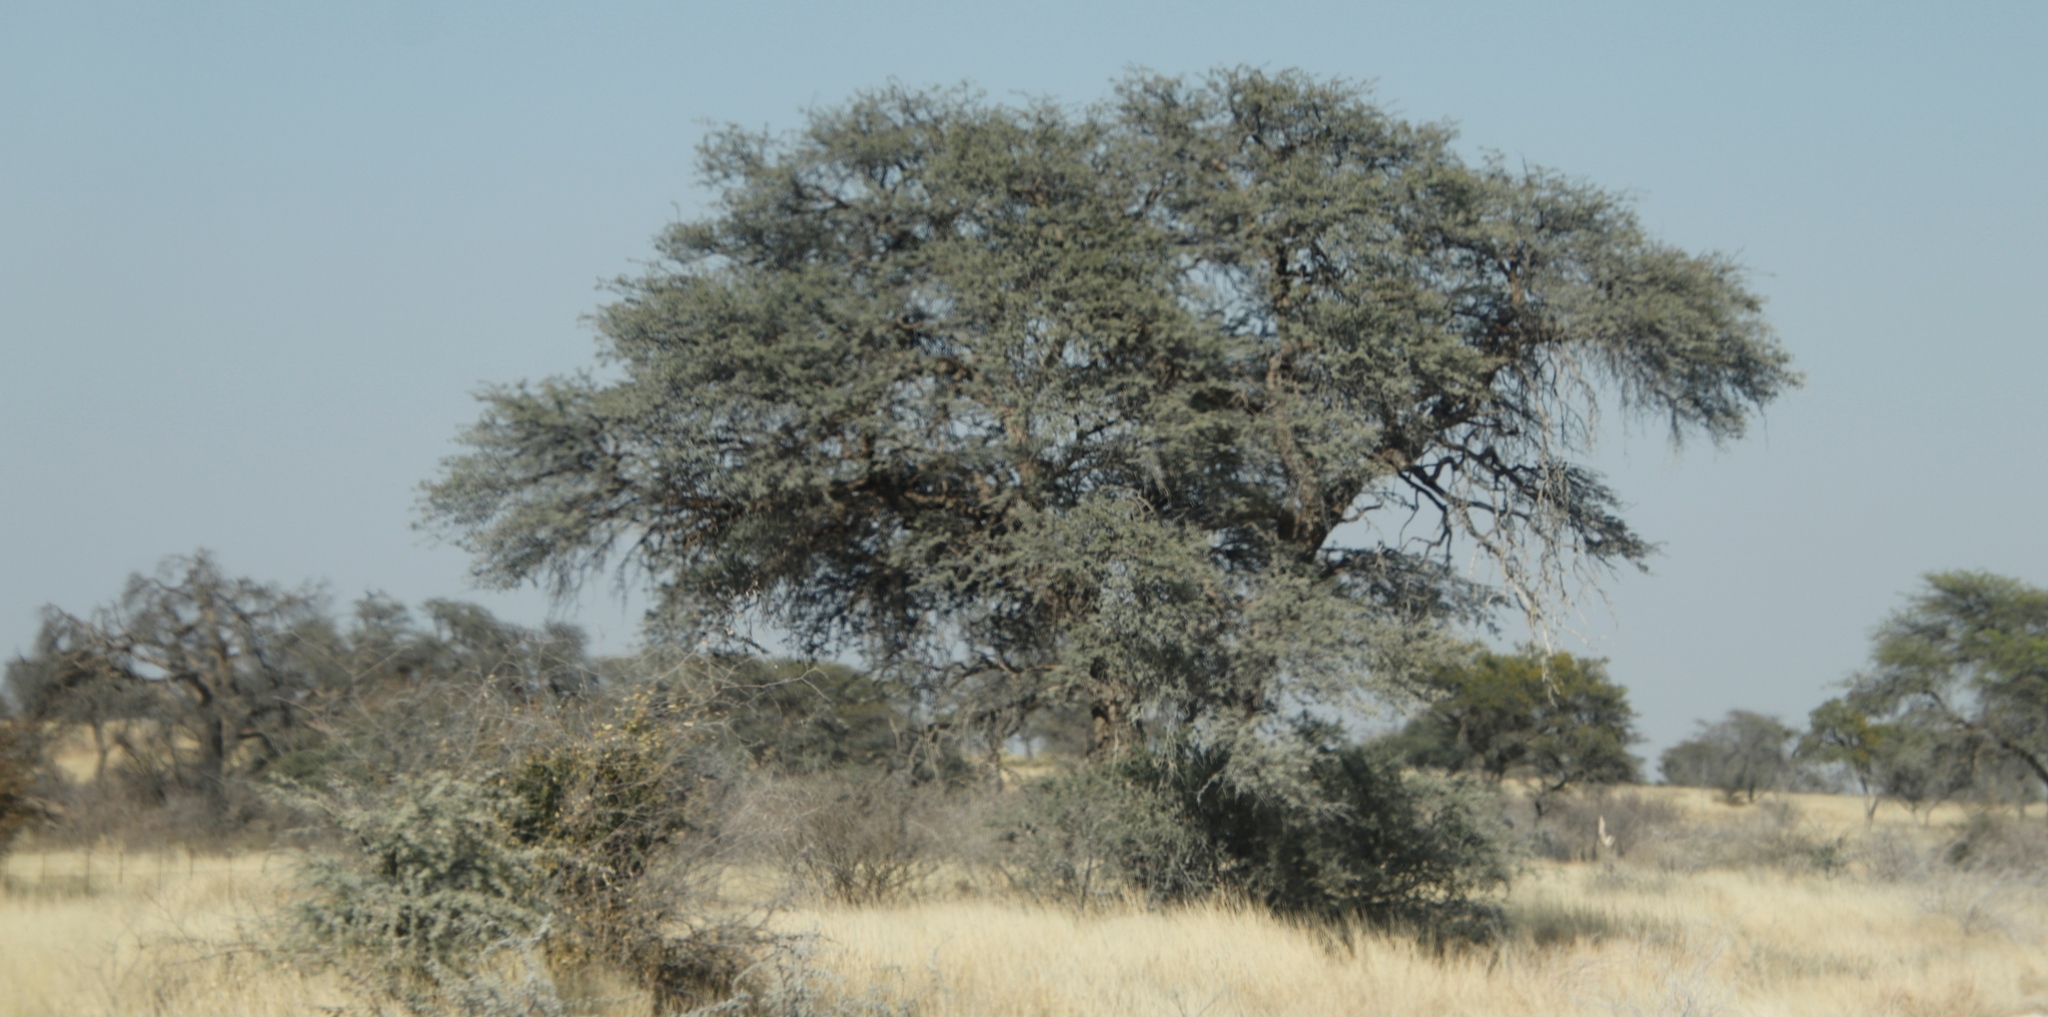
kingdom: Plantae
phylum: Tracheophyta
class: Magnoliopsida
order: Fabales
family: Fabaceae
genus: Vachellia
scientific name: Vachellia erioloba
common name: Camel thorn
